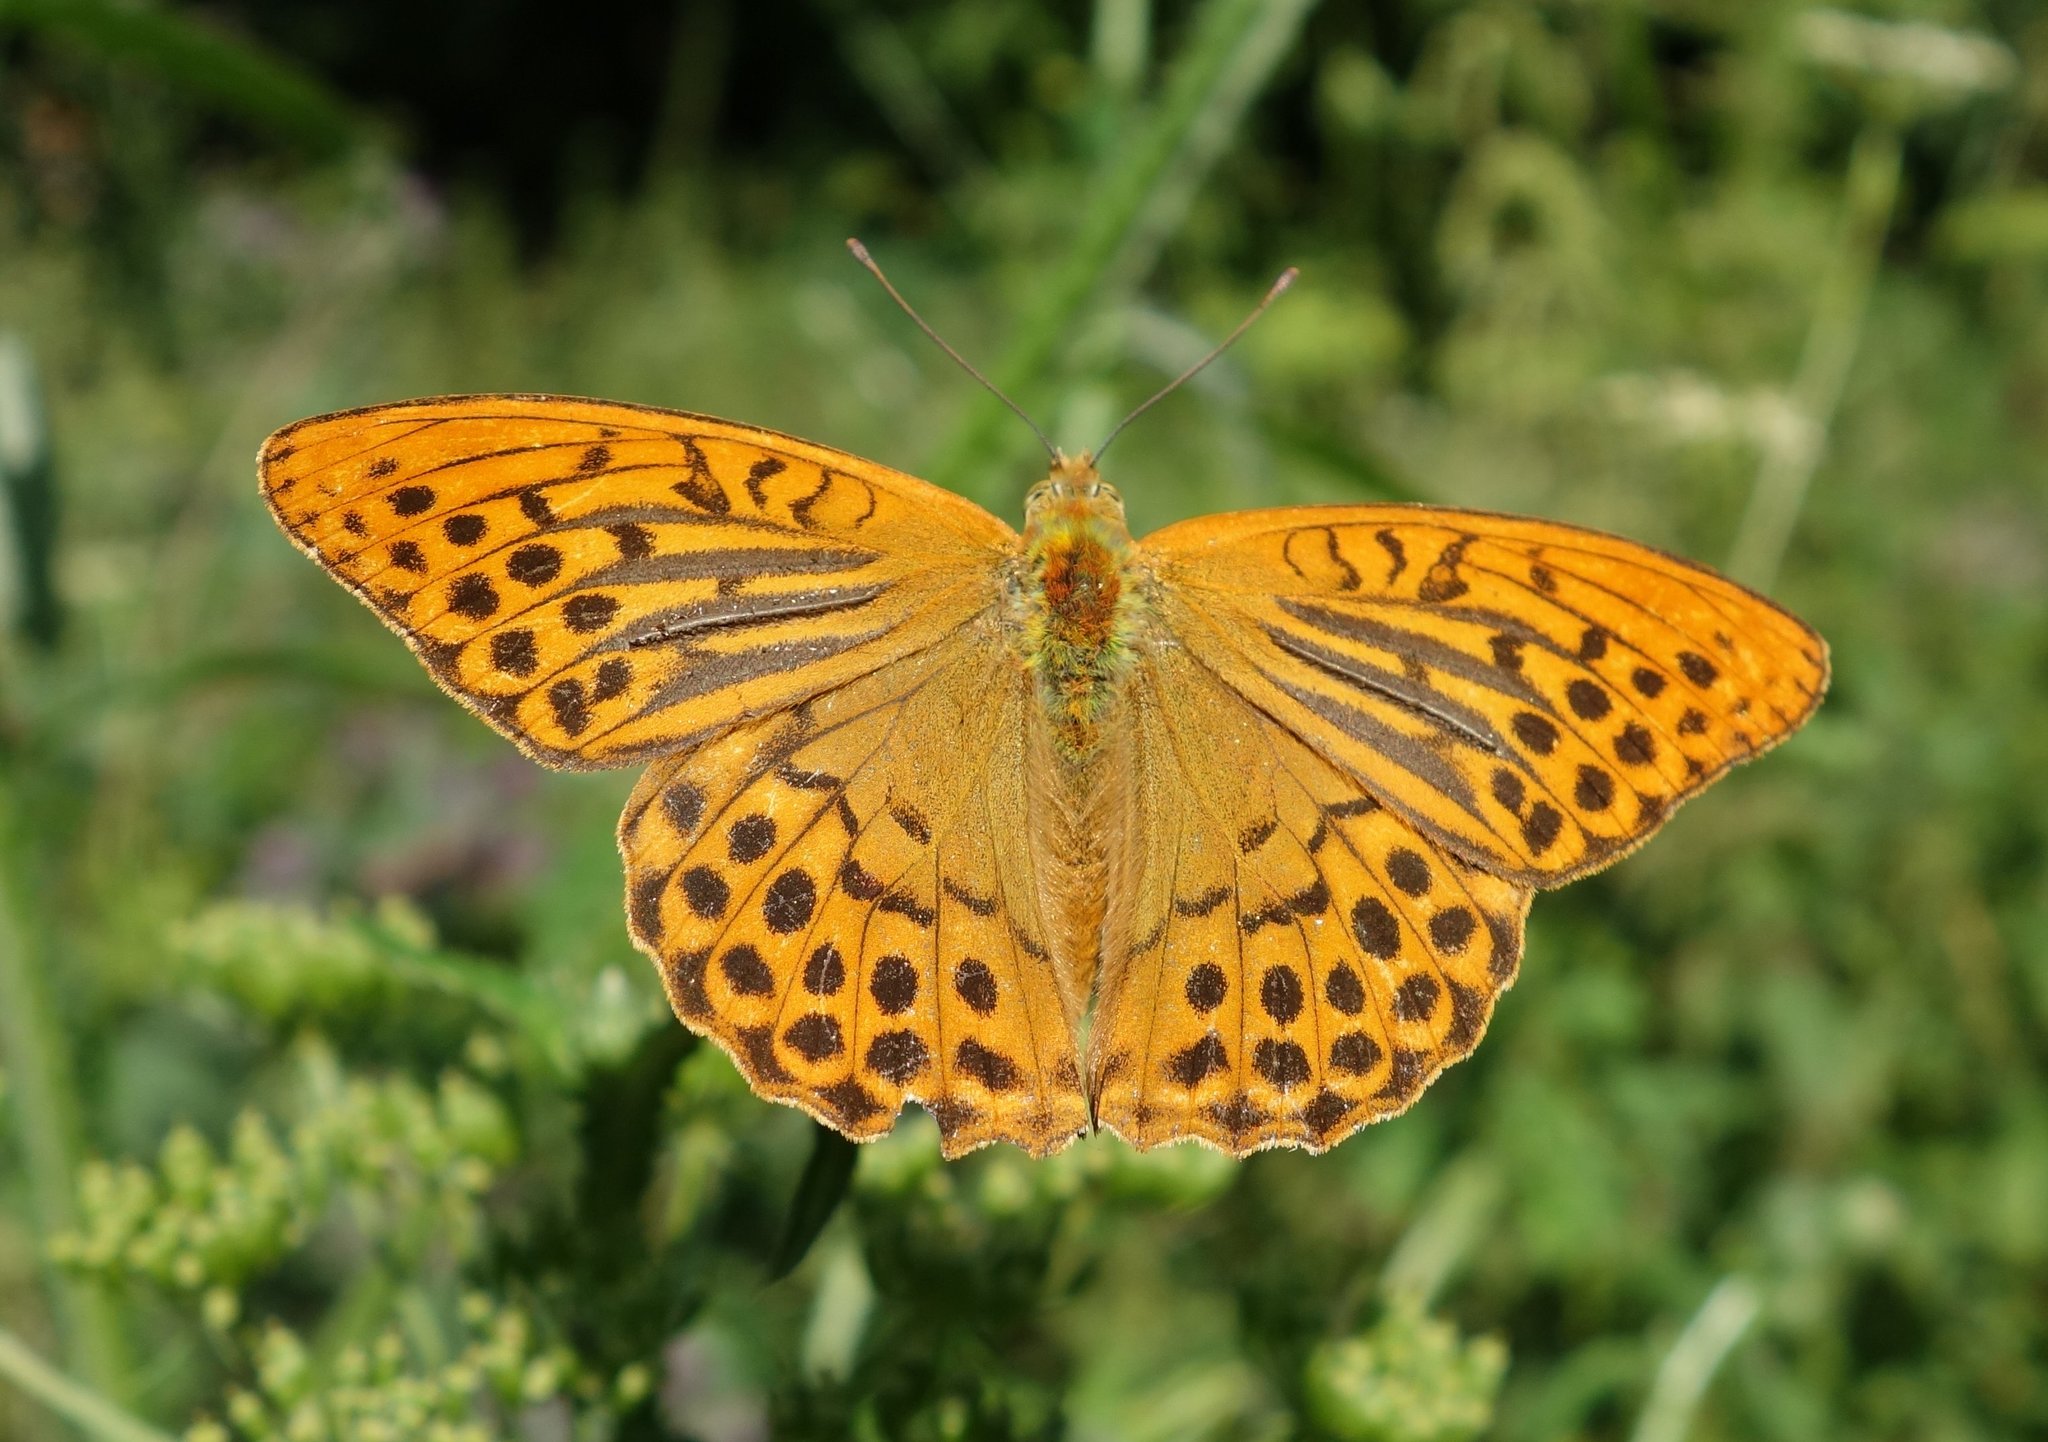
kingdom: Animalia
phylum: Arthropoda
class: Insecta
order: Lepidoptera
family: Nymphalidae
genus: Argynnis
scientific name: Argynnis paphia
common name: Silver-washed fritillary
